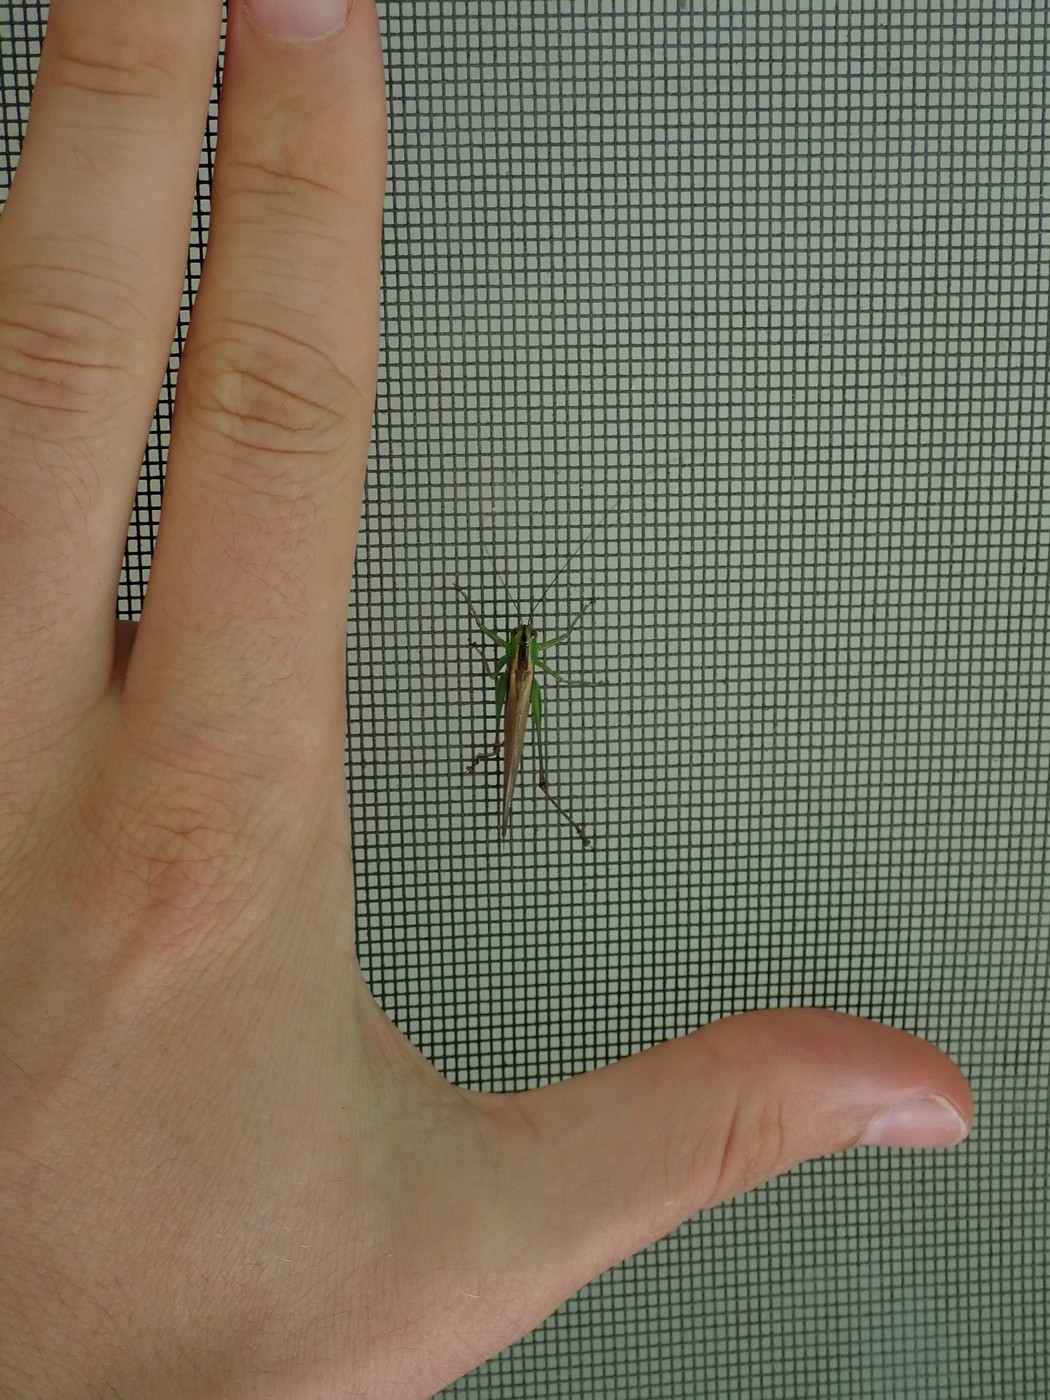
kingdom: Animalia
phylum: Arthropoda
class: Insecta
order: Orthoptera
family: Tettigoniidae
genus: Conocephalus
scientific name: Conocephalus brevipennis
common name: Short-winged meadow katydid
